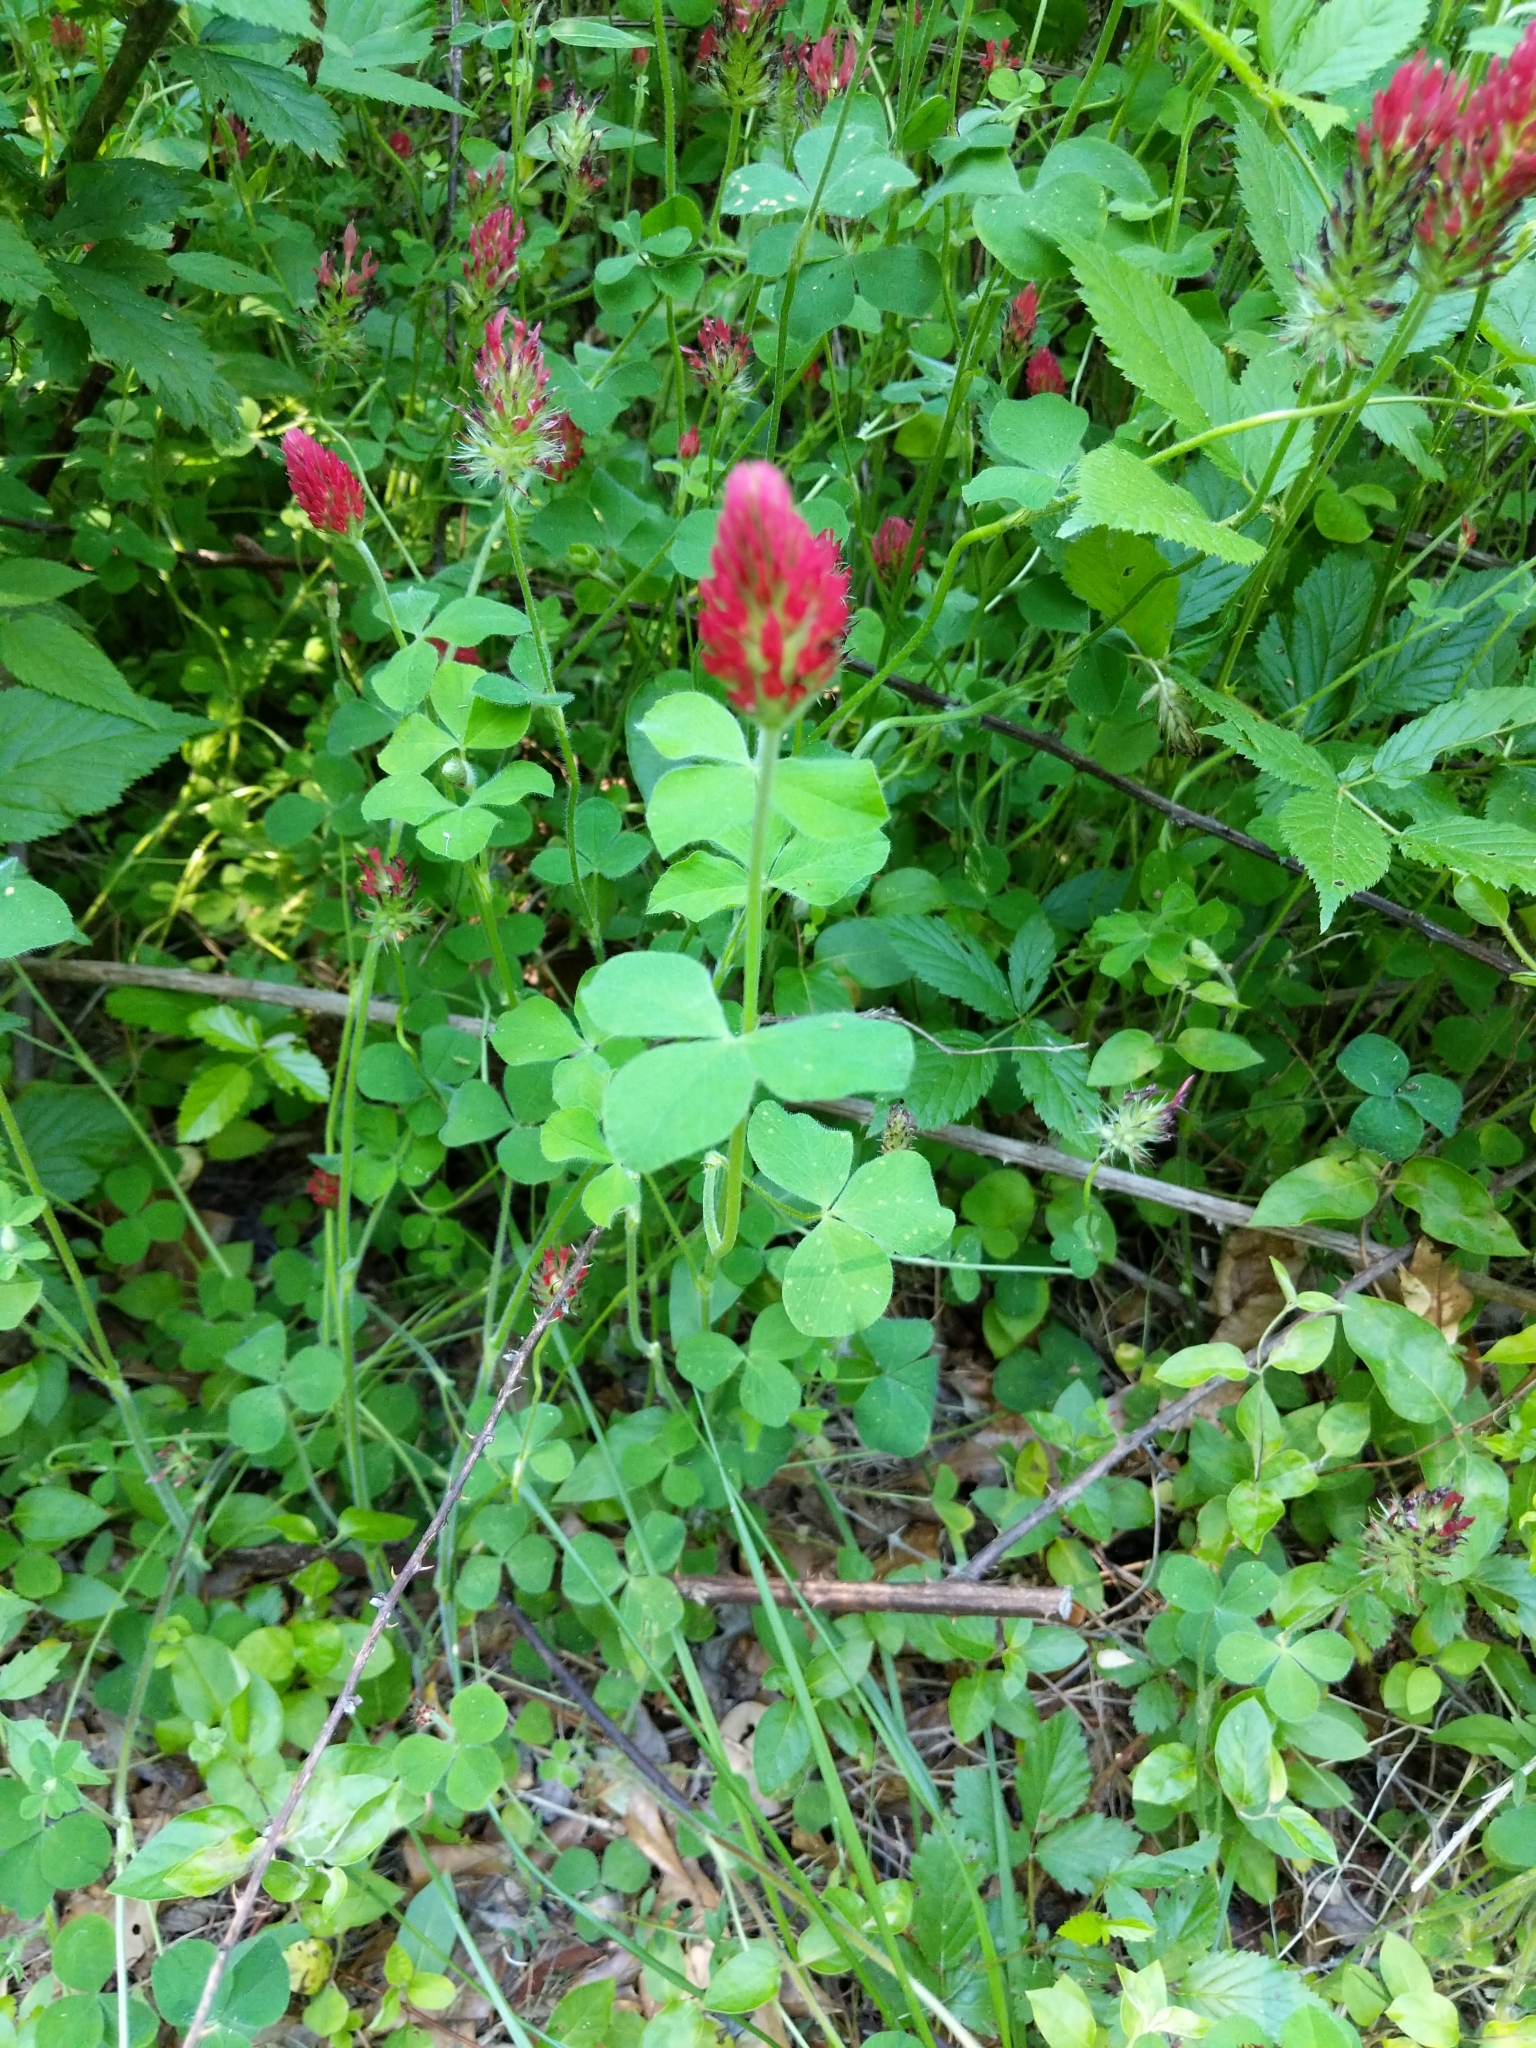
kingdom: Plantae
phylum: Tracheophyta
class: Magnoliopsida
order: Fabales
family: Fabaceae
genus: Trifolium
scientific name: Trifolium incarnatum
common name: Crimson clover
